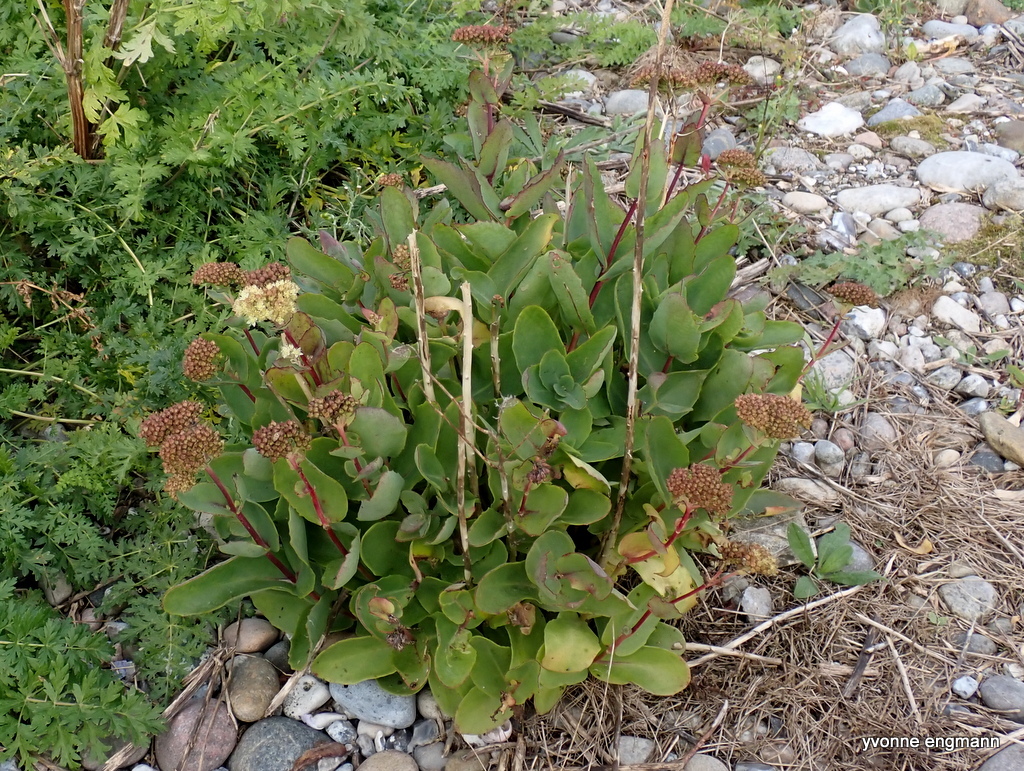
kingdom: Plantae
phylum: Tracheophyta
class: Magnoliopsida
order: Saxifragales
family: Crassulaceae
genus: Hylotelephium
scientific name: Hylotelephium maximum
